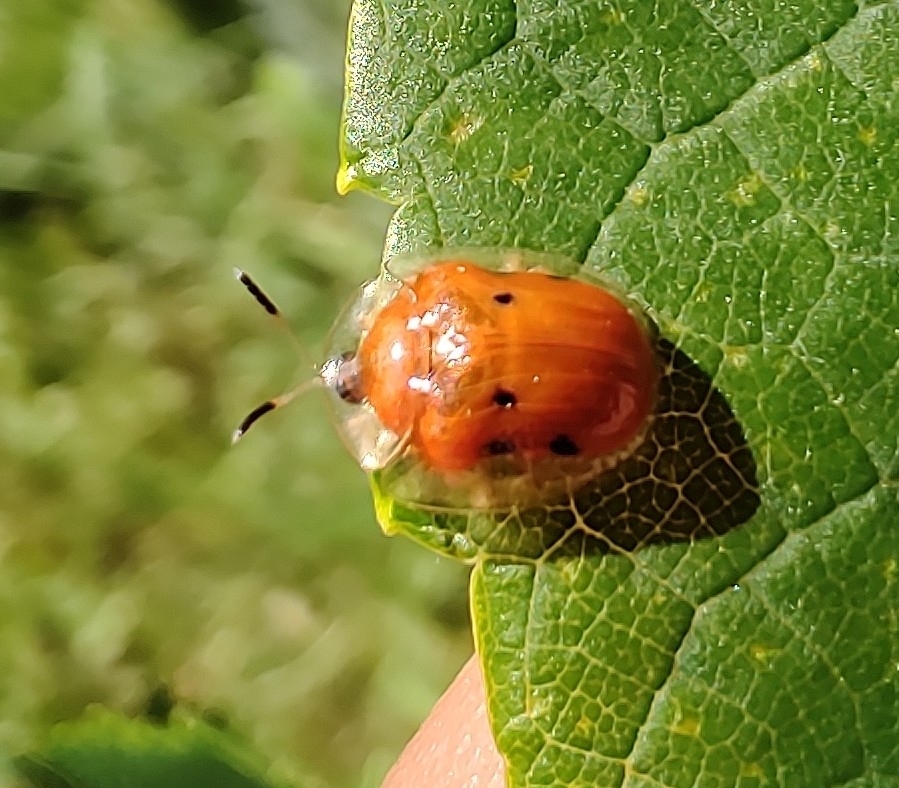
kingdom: Animalia
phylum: Arthropoda
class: Insecta
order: Coleoptera
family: Chrysomelidae
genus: Charidotella
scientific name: Charidotella sexpunctata
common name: Golden tortoise beetle
